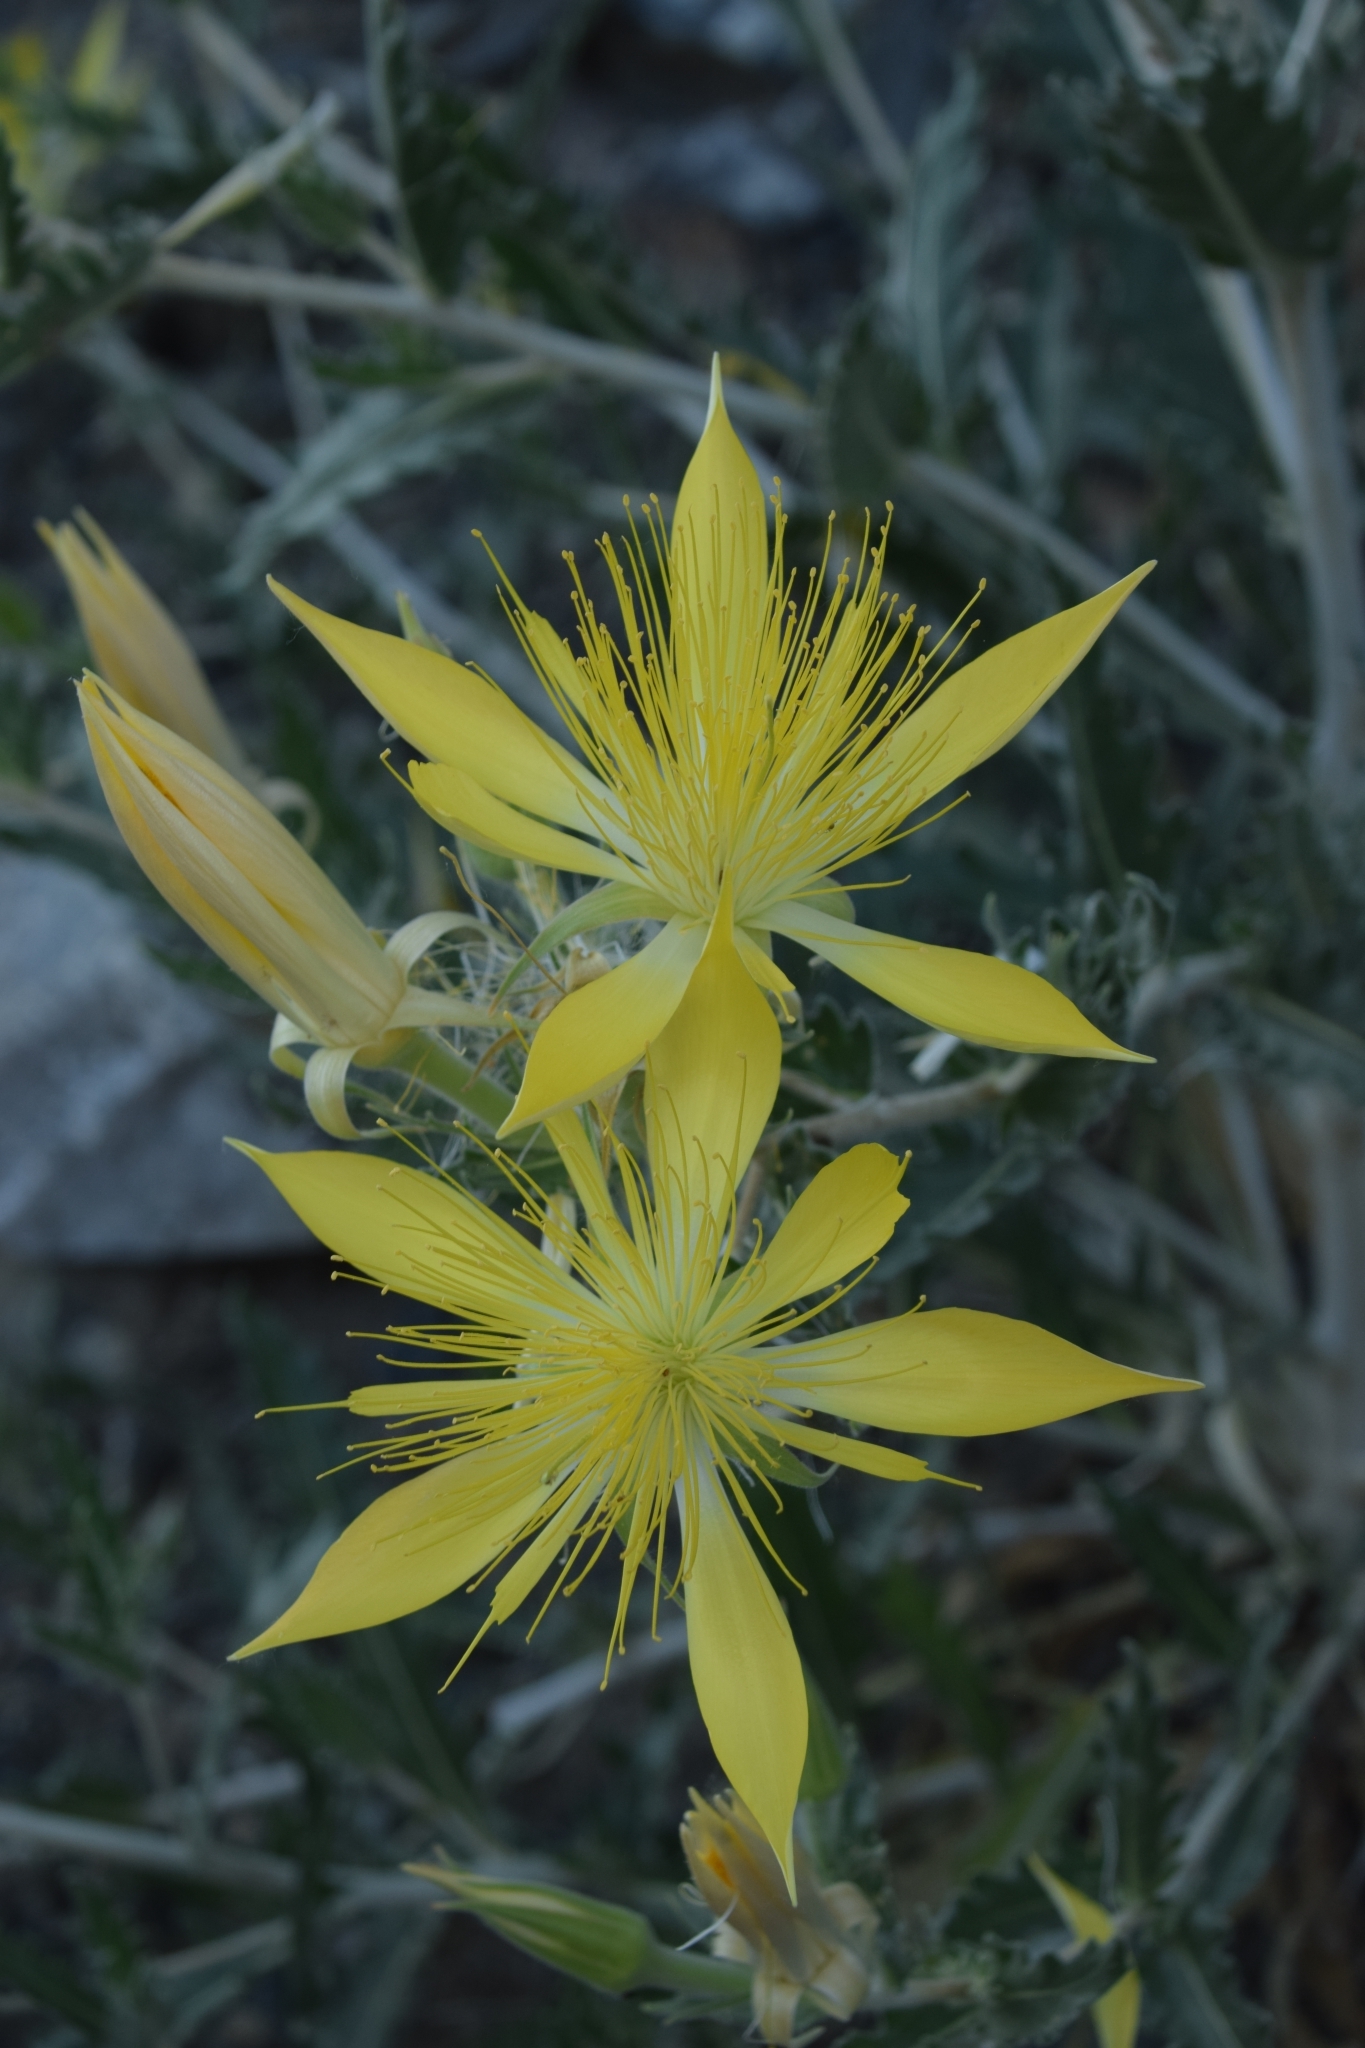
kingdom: Plantae
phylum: Tracheophyta
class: Magnoliopsida
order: Cornales
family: Loasaceae
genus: Mentzelia
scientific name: Mentzelia laevicaulis
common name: Smooth-stem blazingstar
